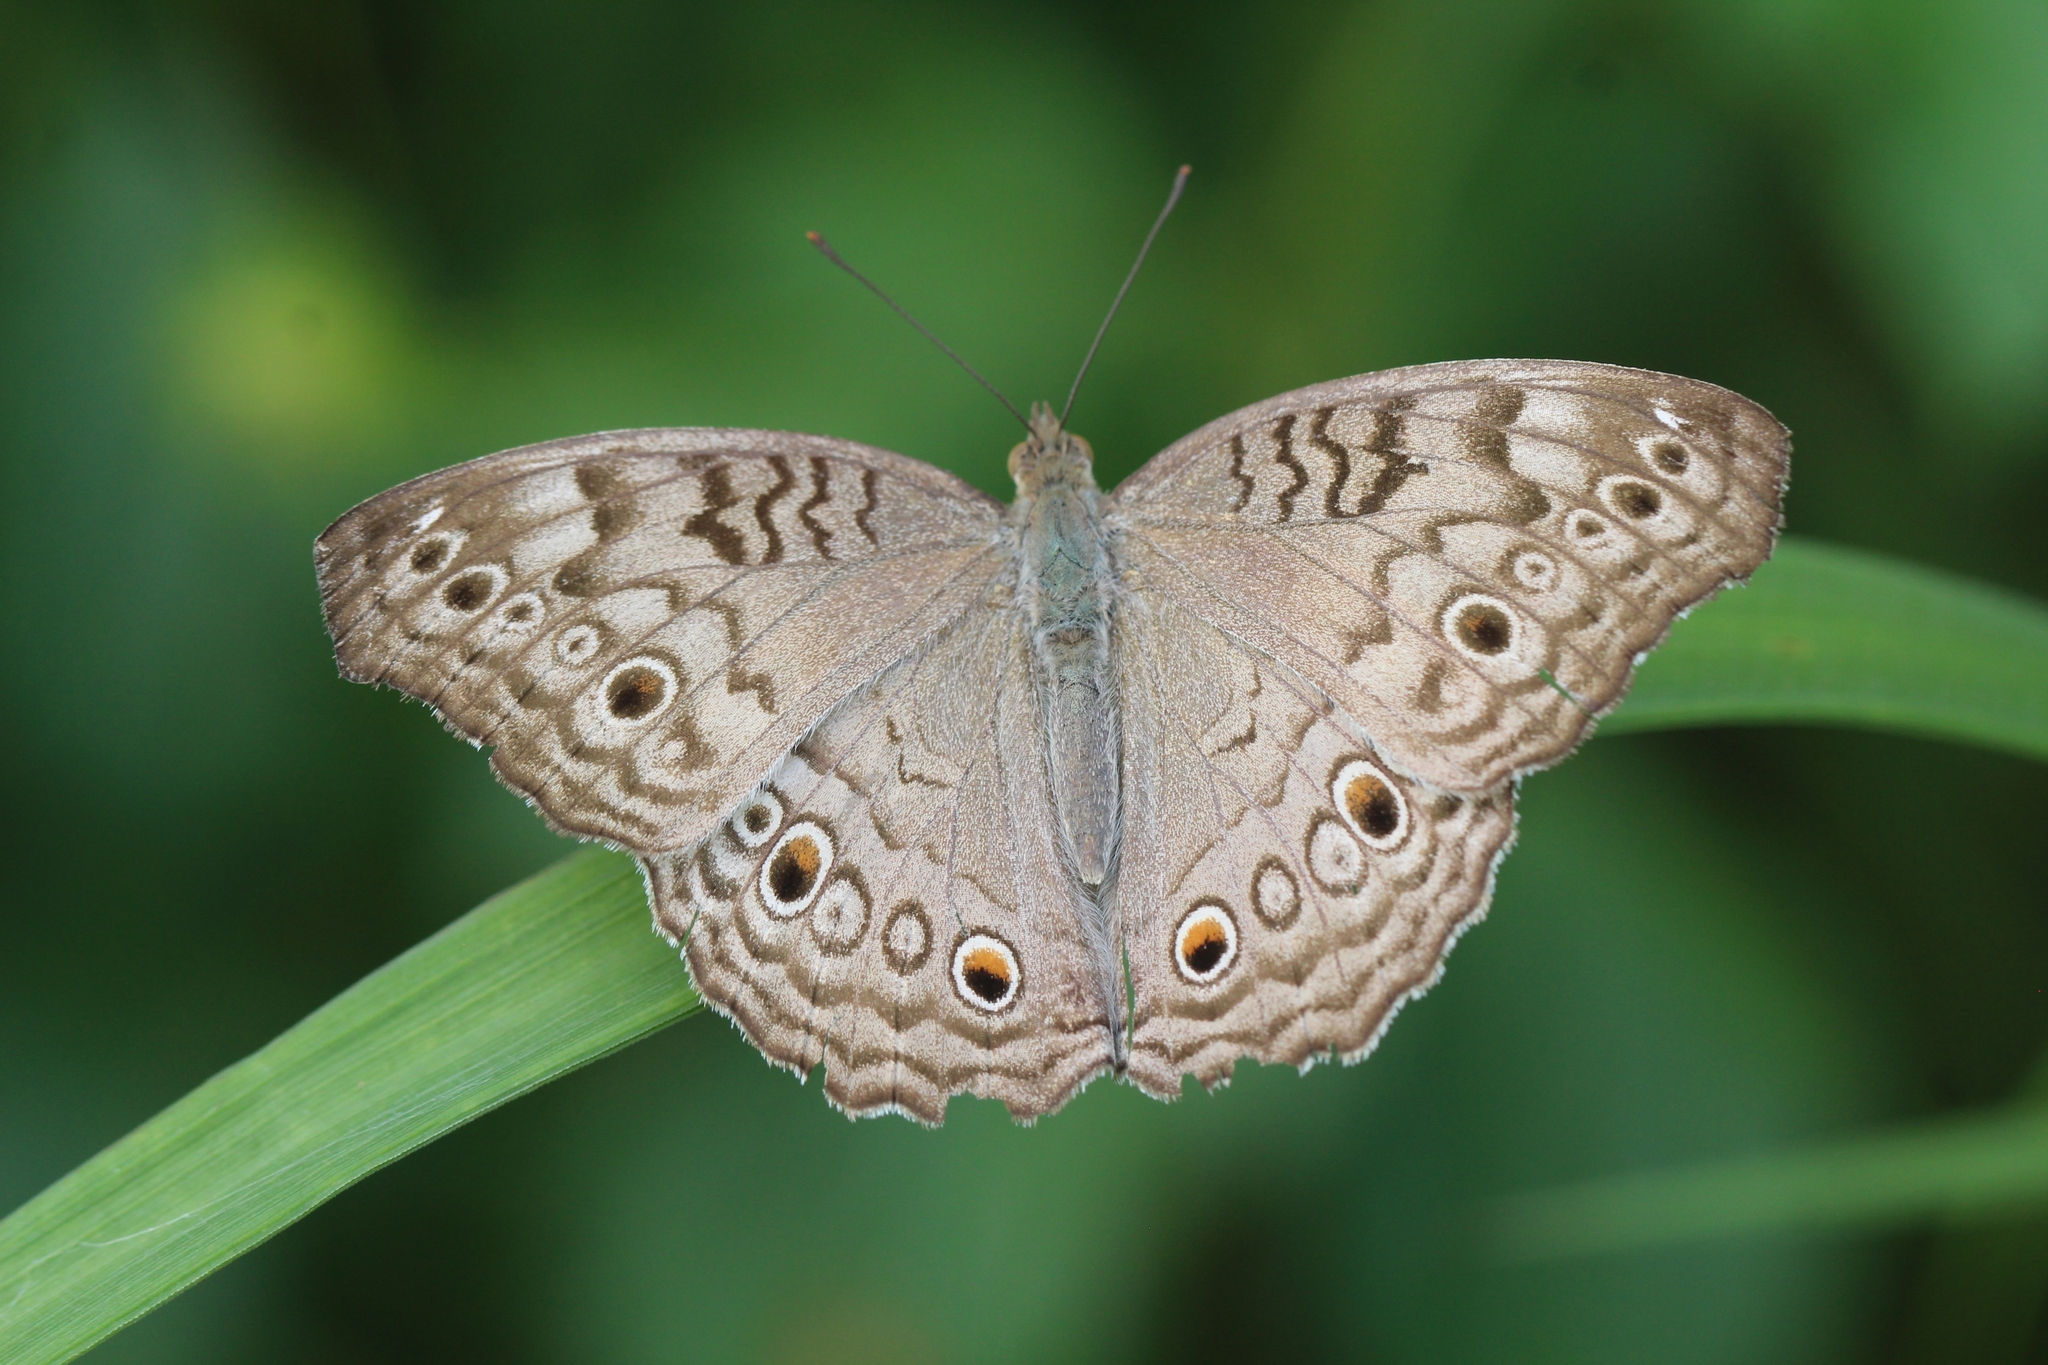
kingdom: Animalia
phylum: Arthropoda
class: Insecta
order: Lepidoptera
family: Nymphalidae
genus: Junonia
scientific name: Junonia atlites
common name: Grey pansy
